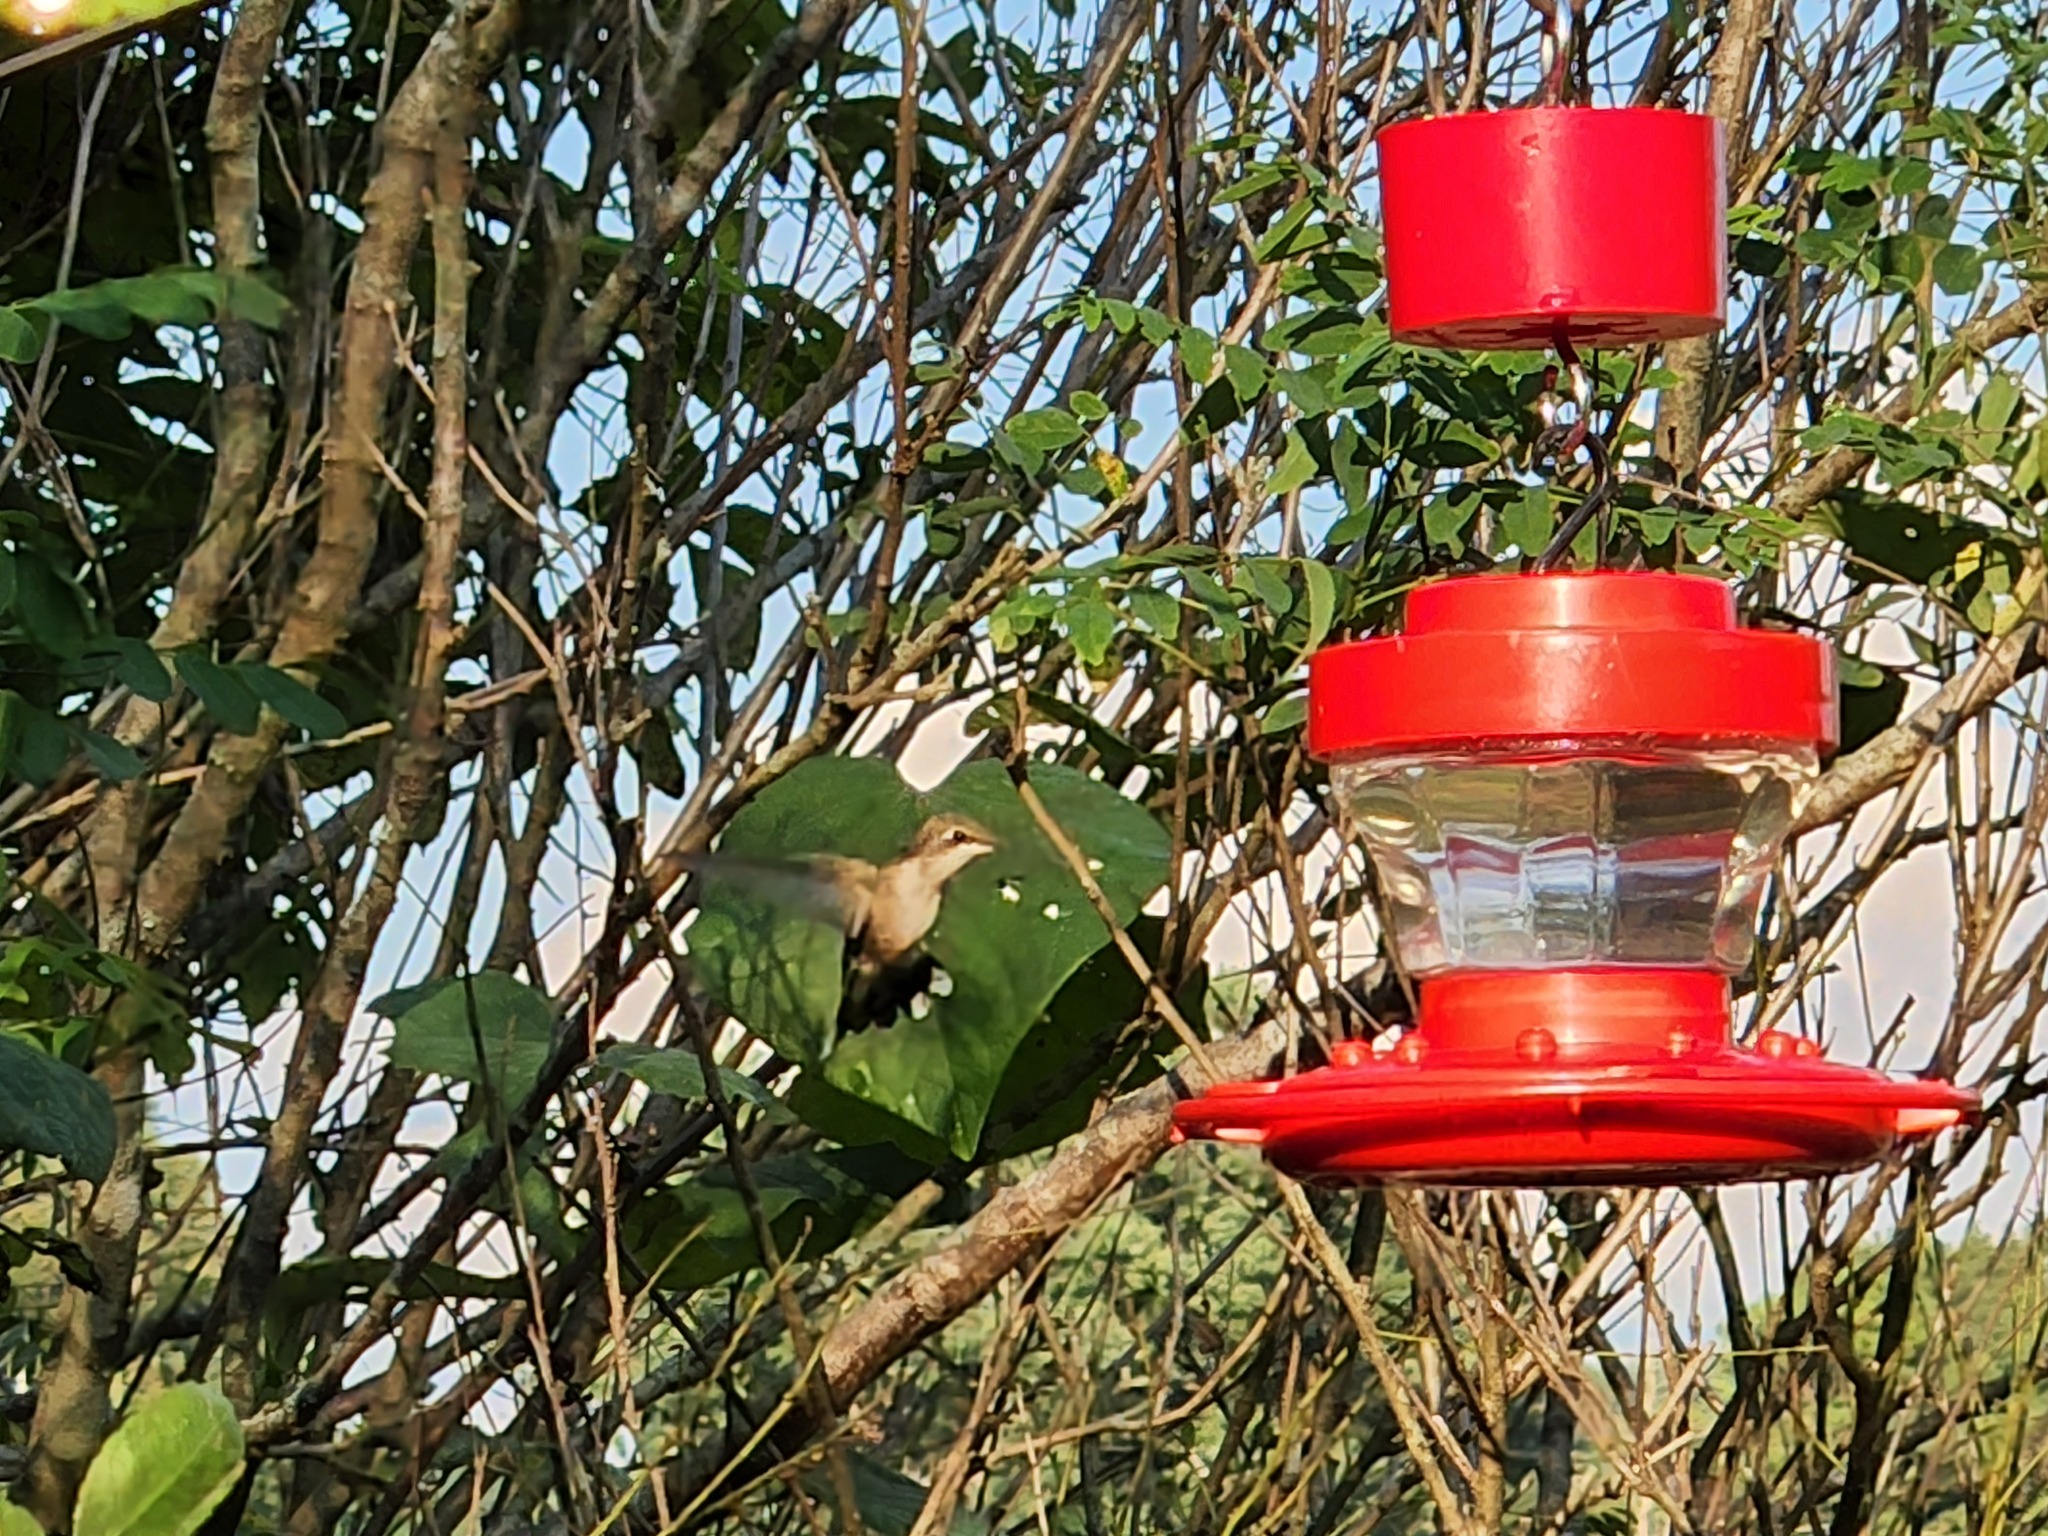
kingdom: Animalia
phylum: Chordata
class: Aves
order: Apodiformes
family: Trochilidae
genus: Archilochus
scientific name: Archilochus colubris
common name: Ruby-throated hummingbird
